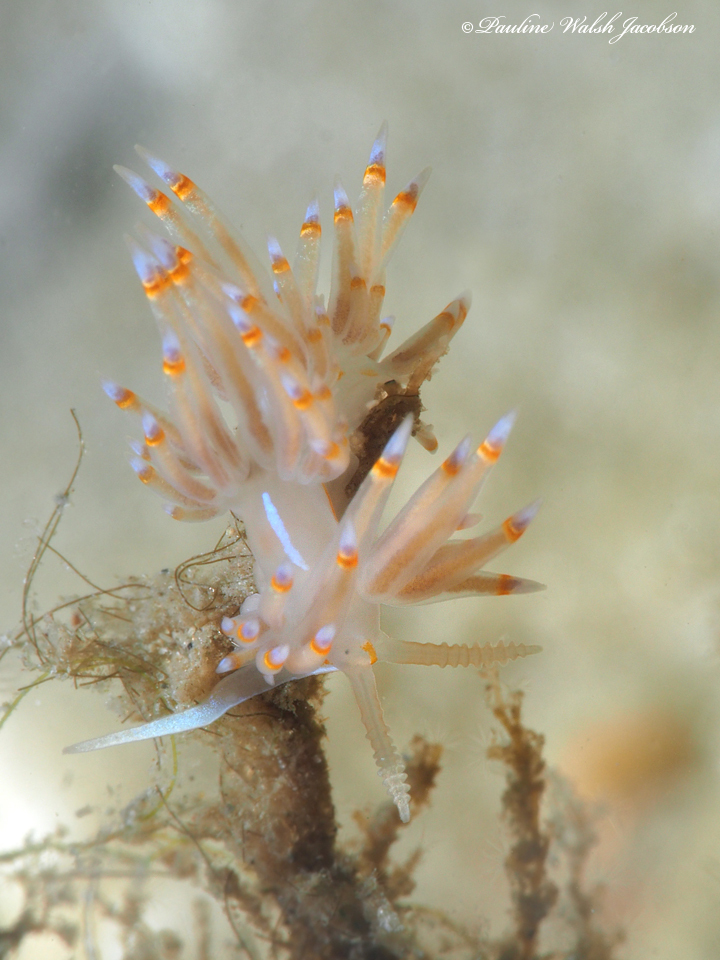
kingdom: Animalia
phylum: Mollusca
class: Gastropoda
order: Nudibranchia
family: Myrrhinidae
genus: Dondice
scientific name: Dondice jupiteriensis
